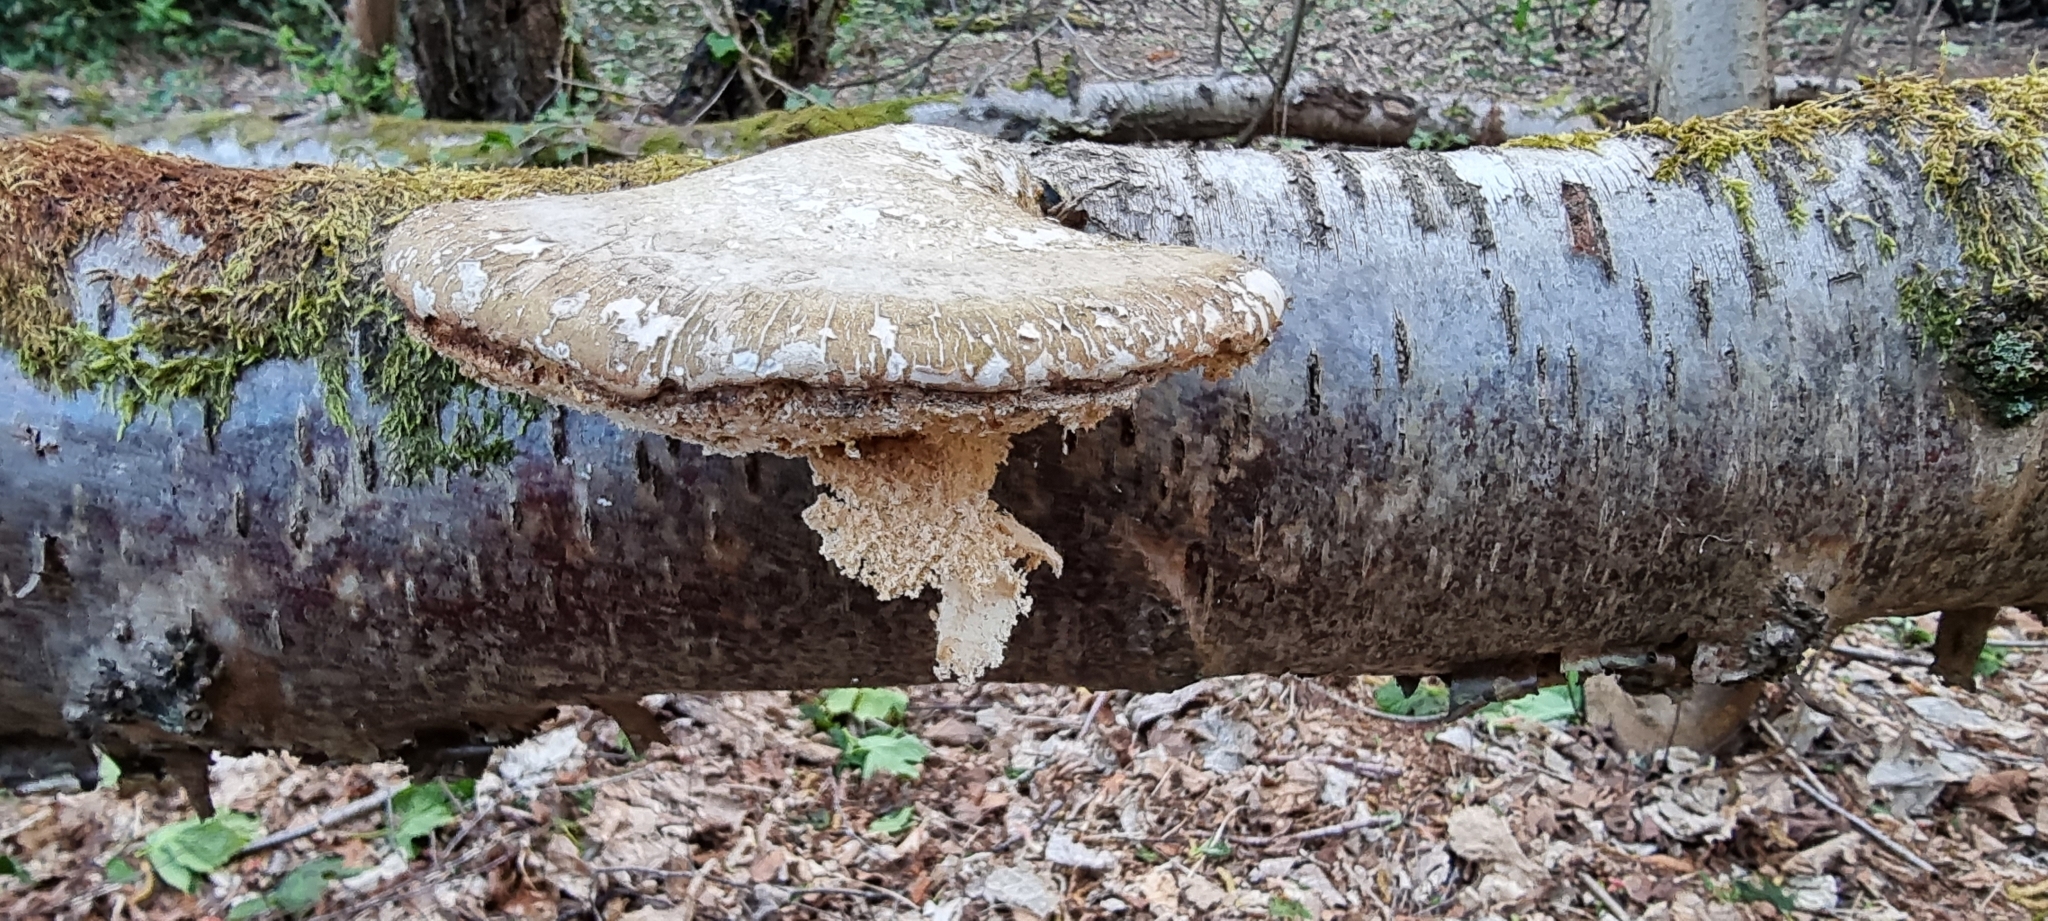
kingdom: Fungi
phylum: Basidiomycota
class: Agaricomycetes
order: Polyporales
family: Fomitopsidaceae
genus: Fomitopsis
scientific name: Fomitopsis betulina
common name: Birch polypore
